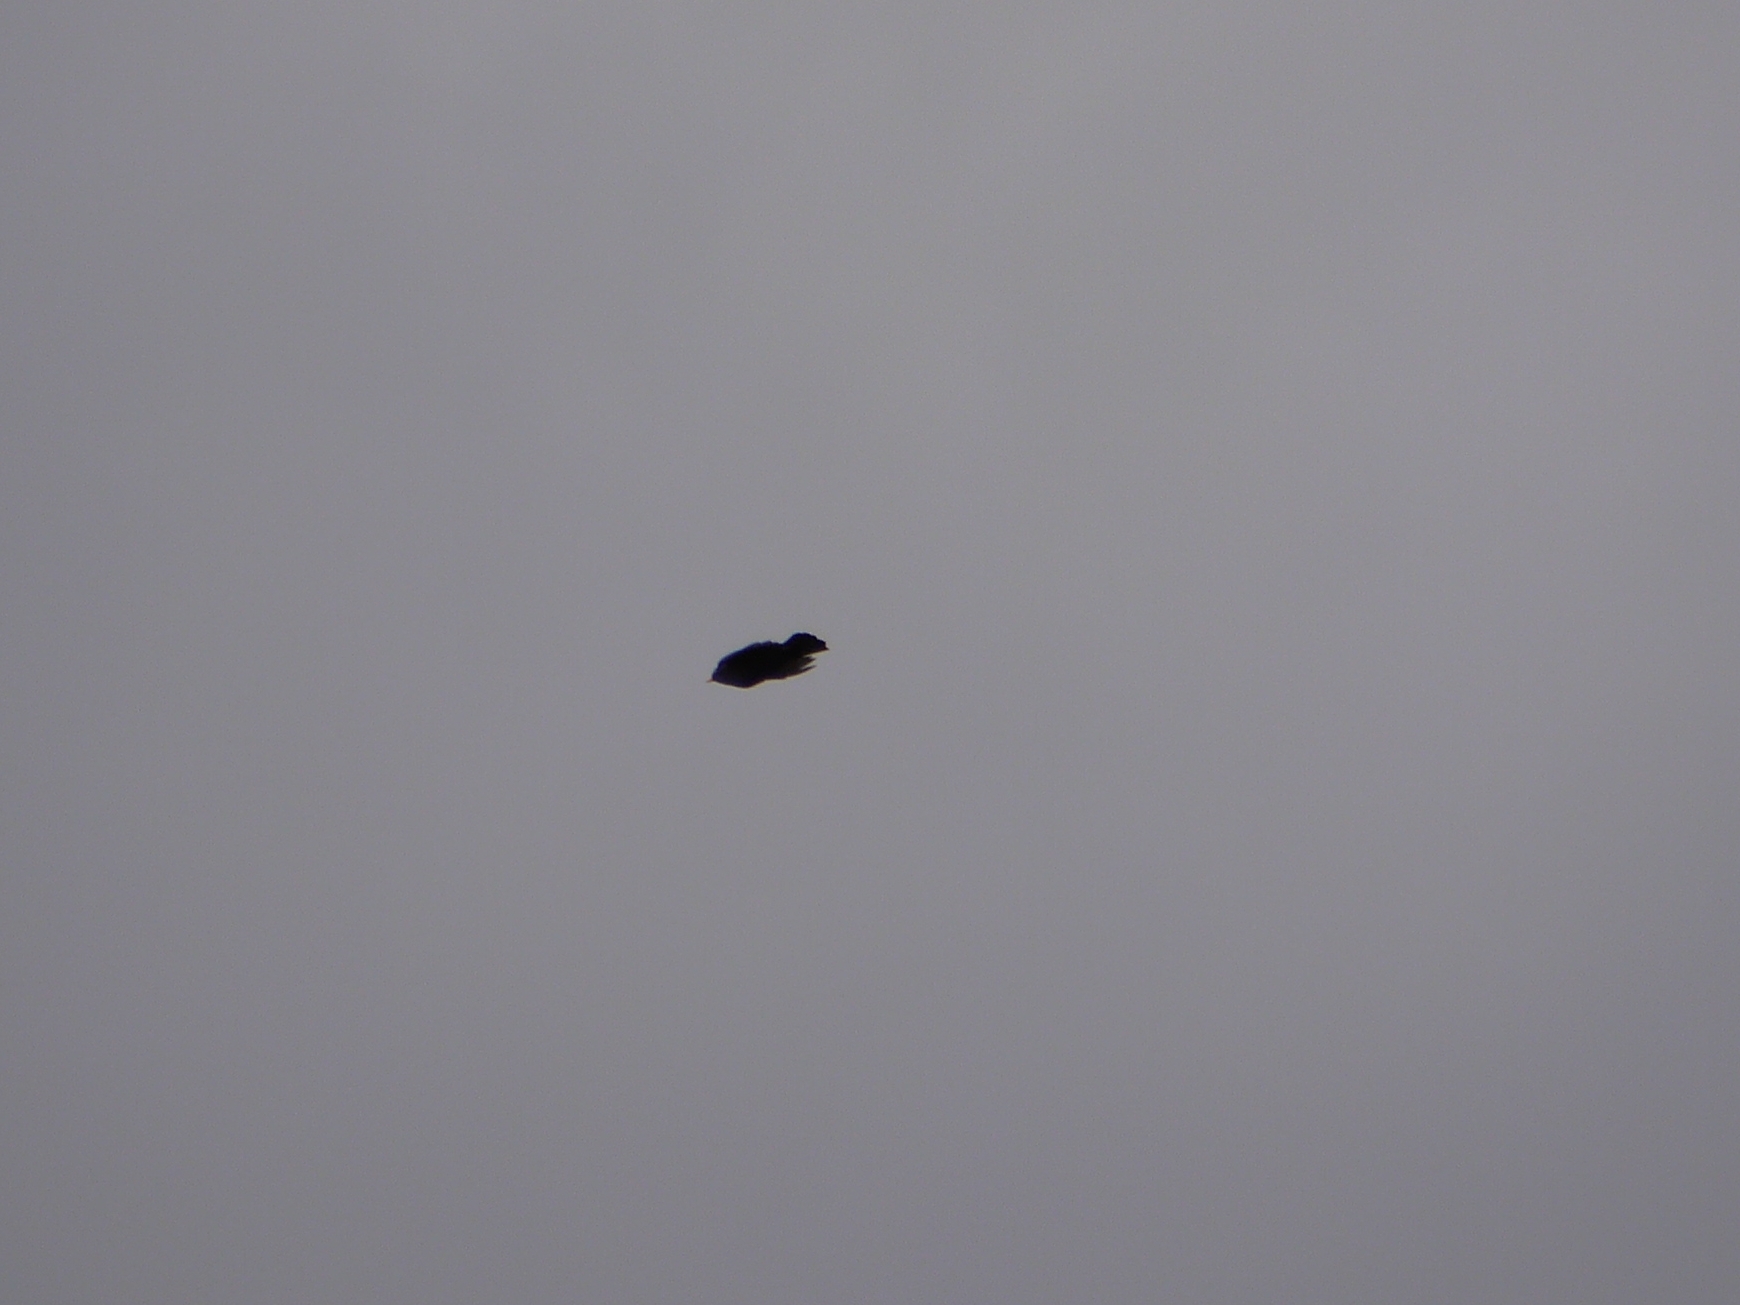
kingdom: Animalia
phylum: Chordata
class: Aves
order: Passeriformes
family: Turdidae
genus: Turdus
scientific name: Turdus merula
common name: Common blackbird
